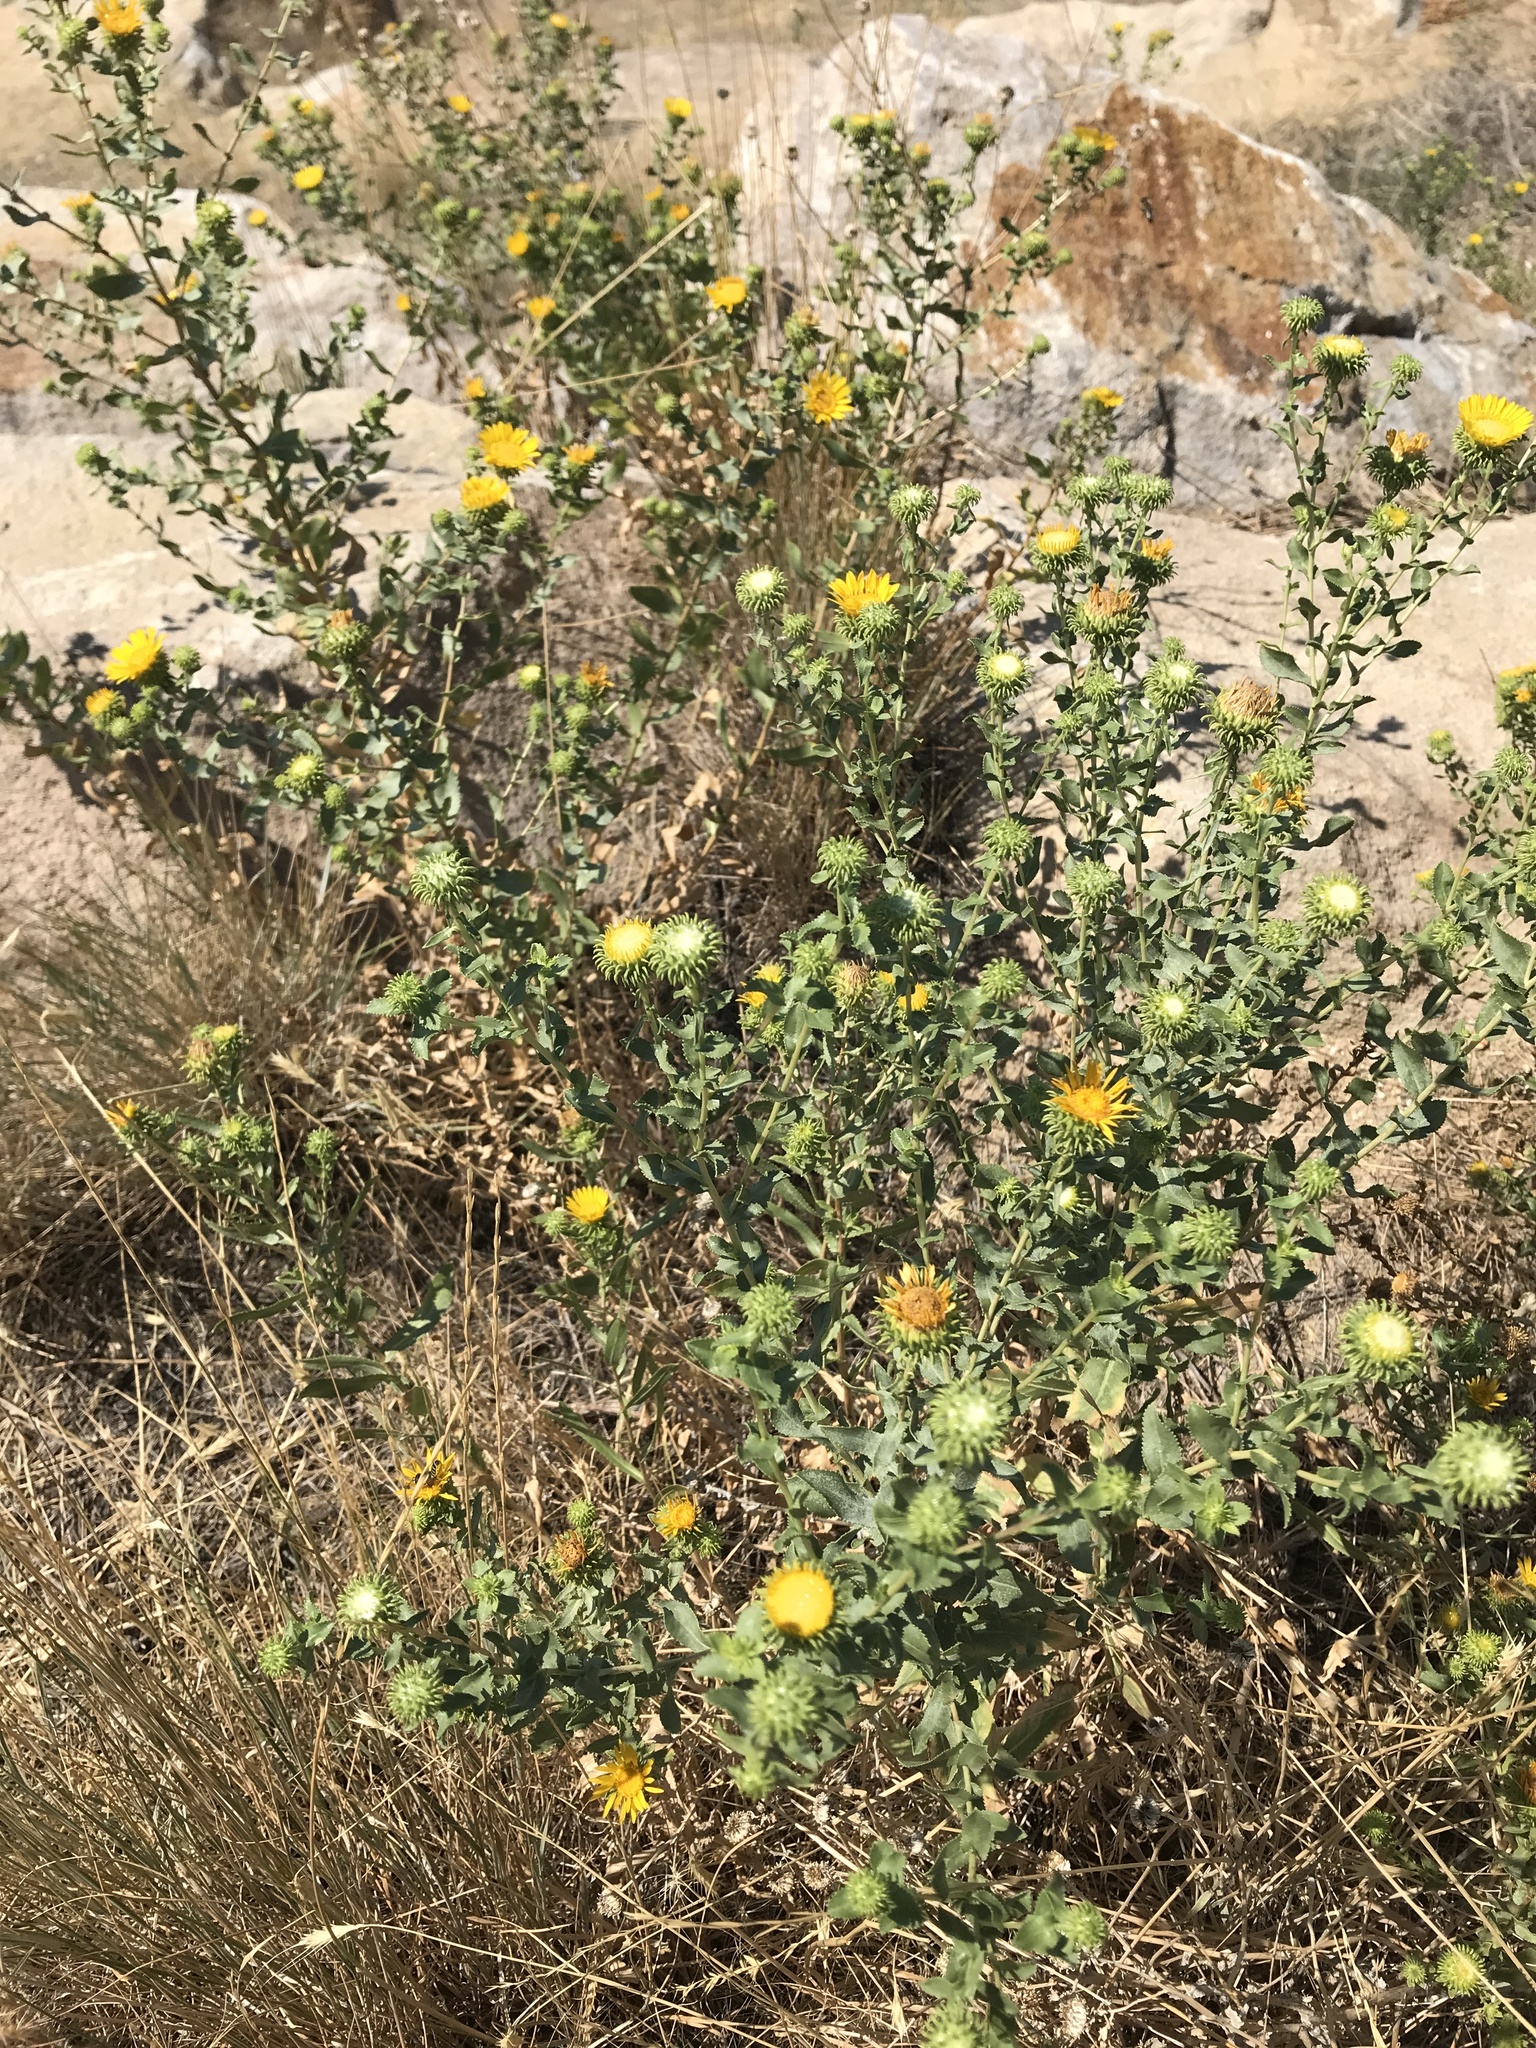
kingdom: Plantae
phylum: Tracheophyta
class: Magnoliopsida
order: Asterales
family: Asteraceae
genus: Grindelia
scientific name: Grindelia squarrosa
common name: Curly-cup gumweed
